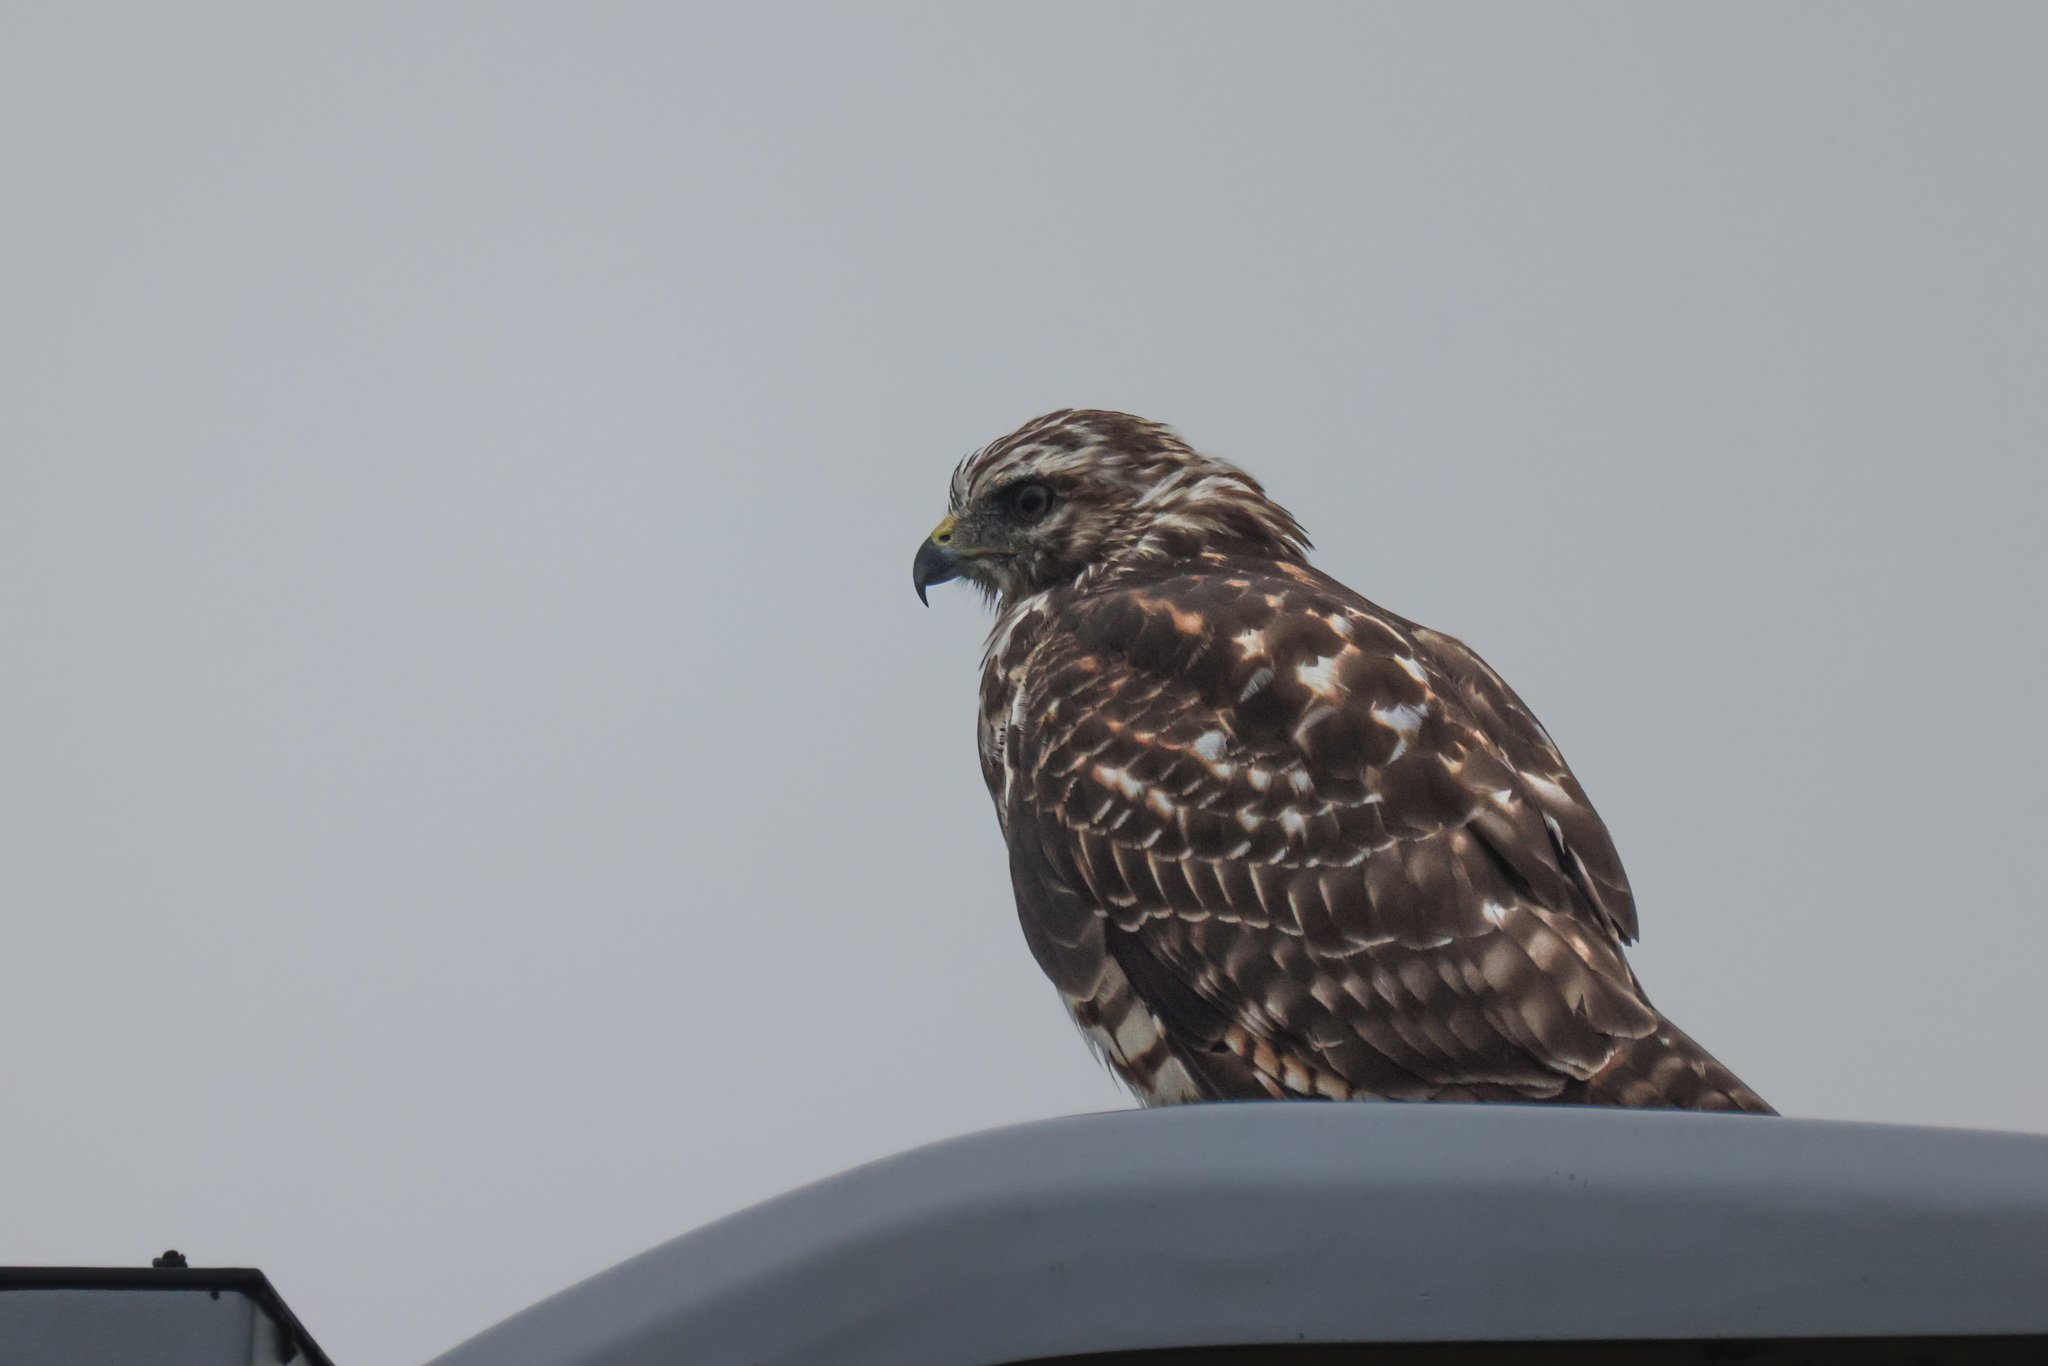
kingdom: Animalia
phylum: Chordata
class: Aves
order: Accipitriformes
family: Accipitridae
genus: Buteo
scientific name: Buteo lineatus
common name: Red-shouldered hawk
